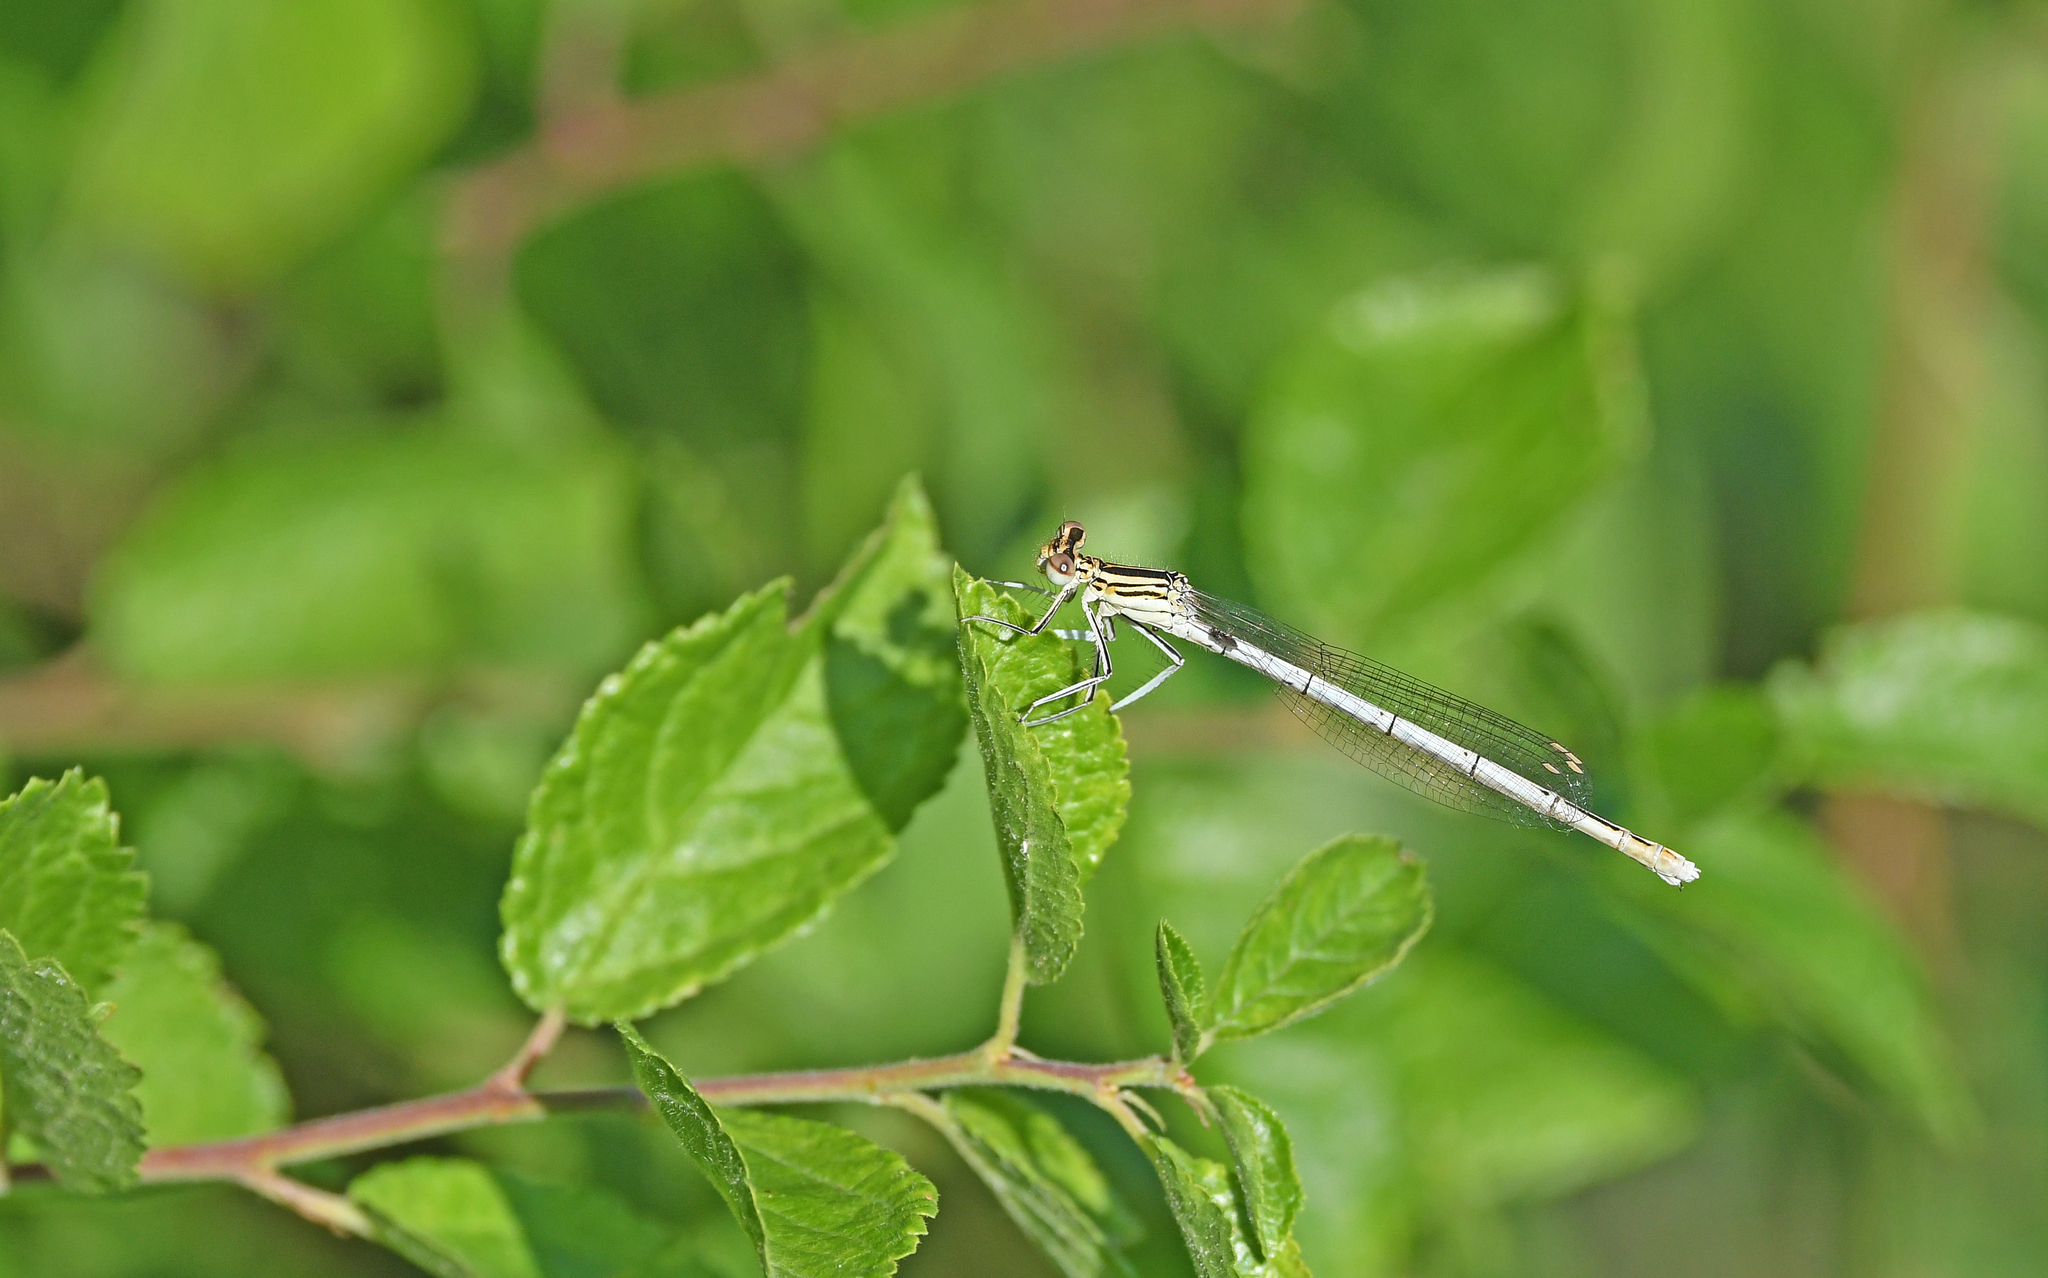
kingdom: Animalia
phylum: Arthropoda
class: Insecta
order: Odonata
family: Platycnemididae
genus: Platycnemis
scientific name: Platycnemis pennipes
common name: White-legged damselfly
